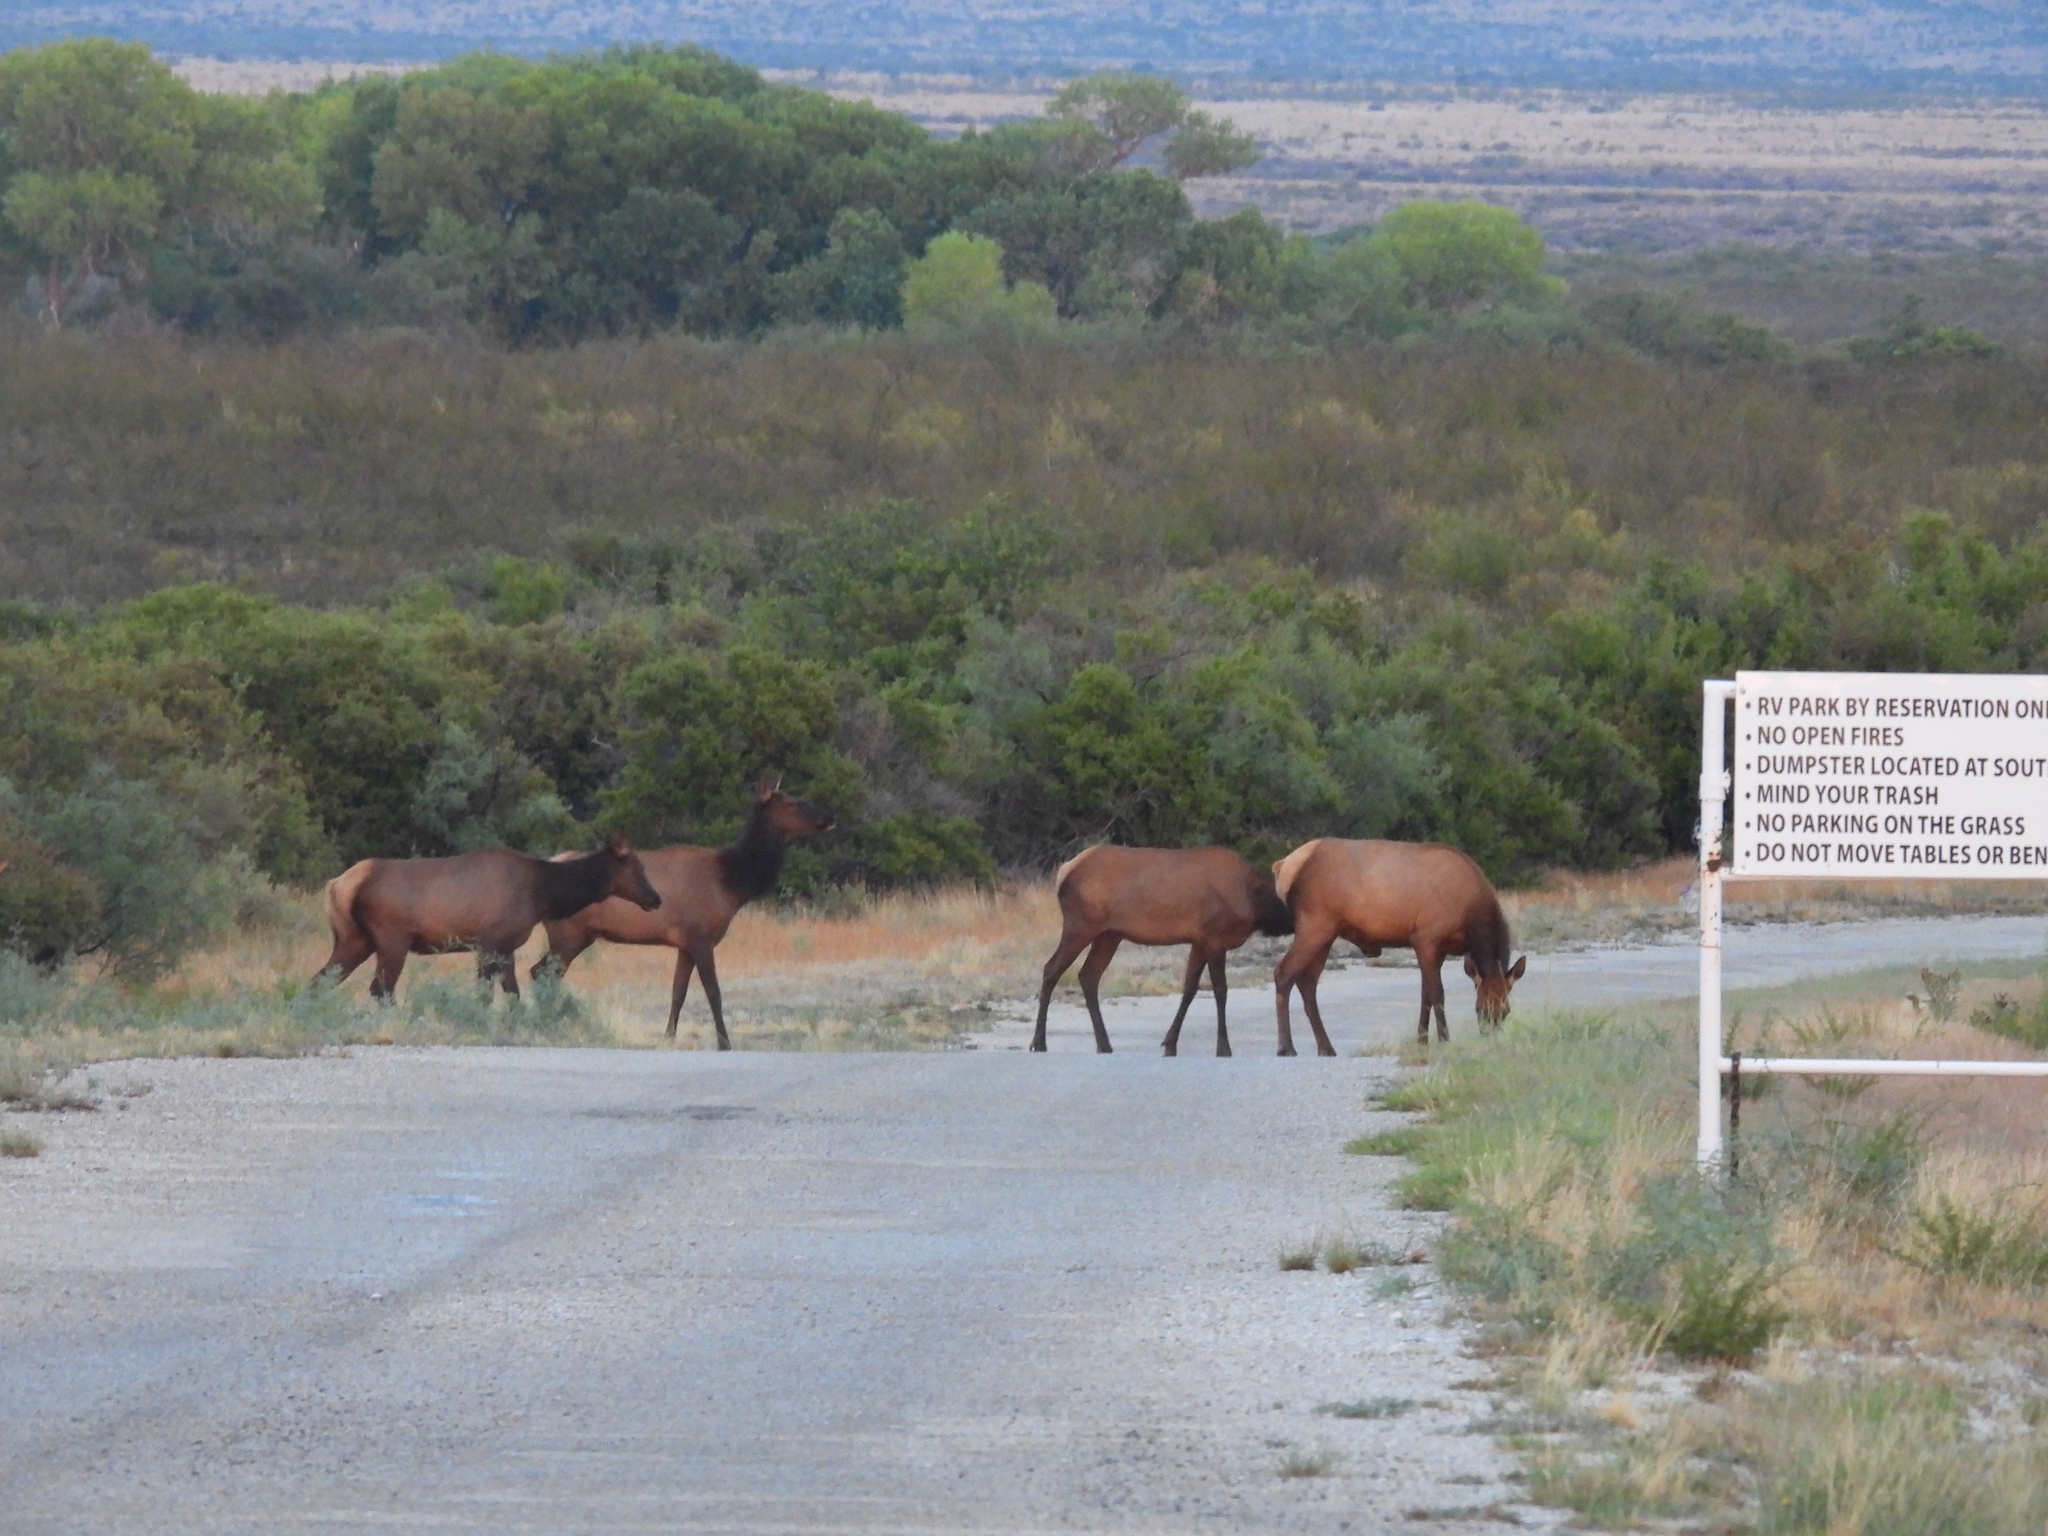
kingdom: Animalia
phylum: Chordata
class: Mammalia
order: Artiodactyla
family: Cervidae
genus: Cervus
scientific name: Cervus elaphus
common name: Red deer
